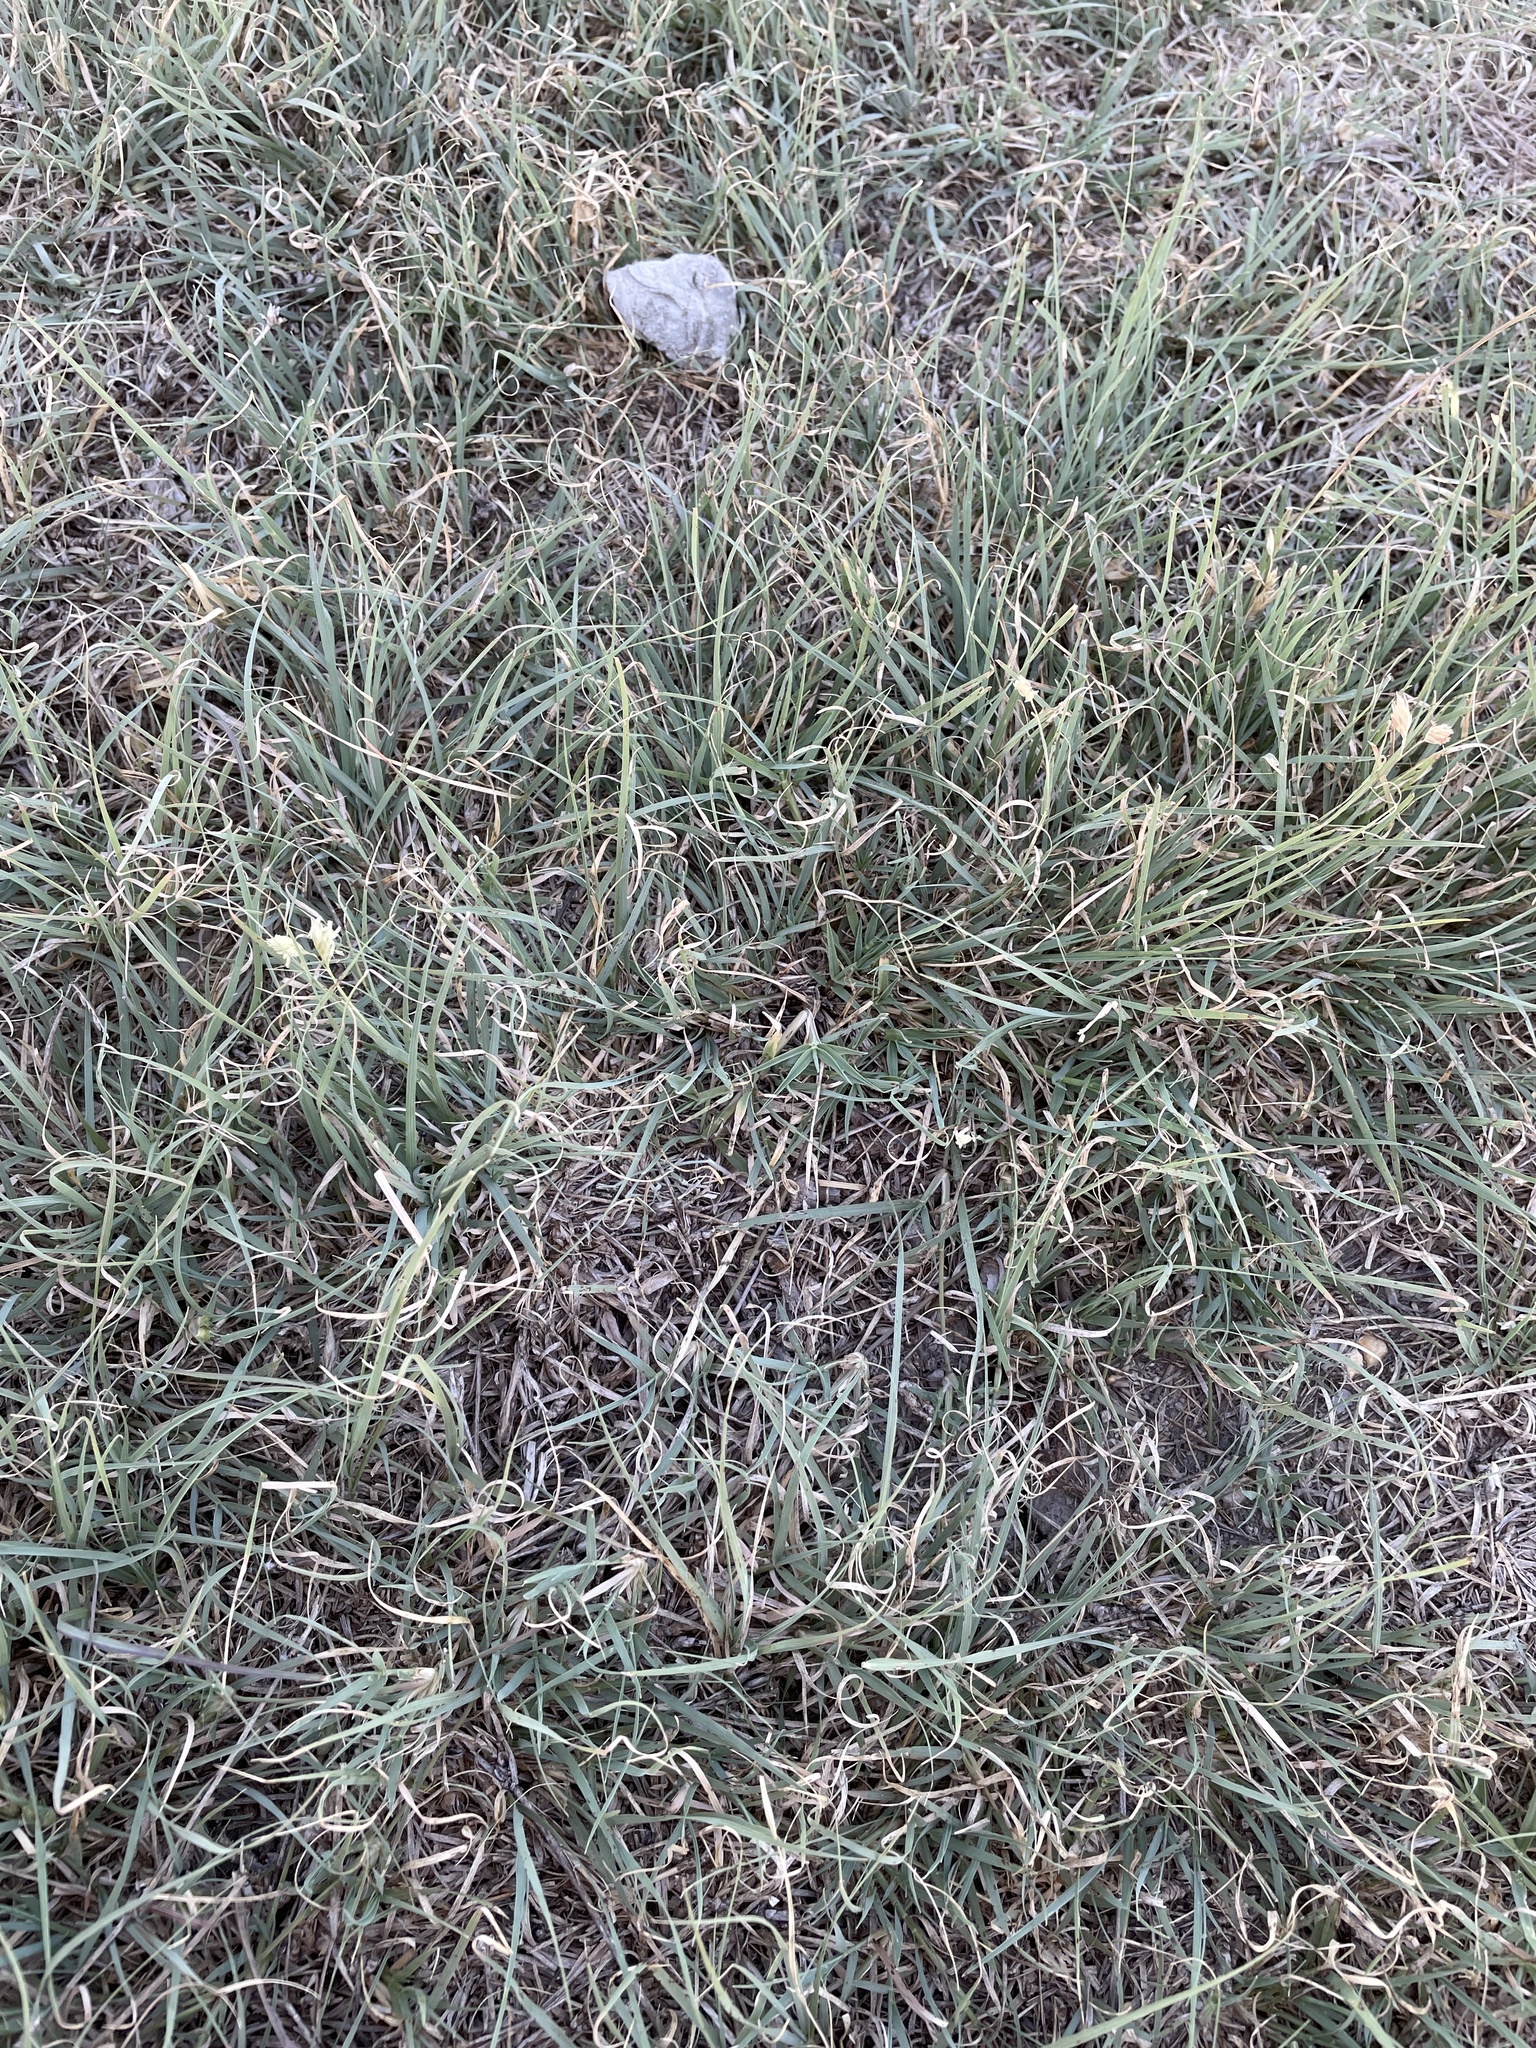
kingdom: Plantae
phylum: Tracheophyta
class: Liliopsida
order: Poales
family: Poaceae
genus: Bouteloua
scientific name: Bouteloua dactyloides
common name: Buffalo grass
